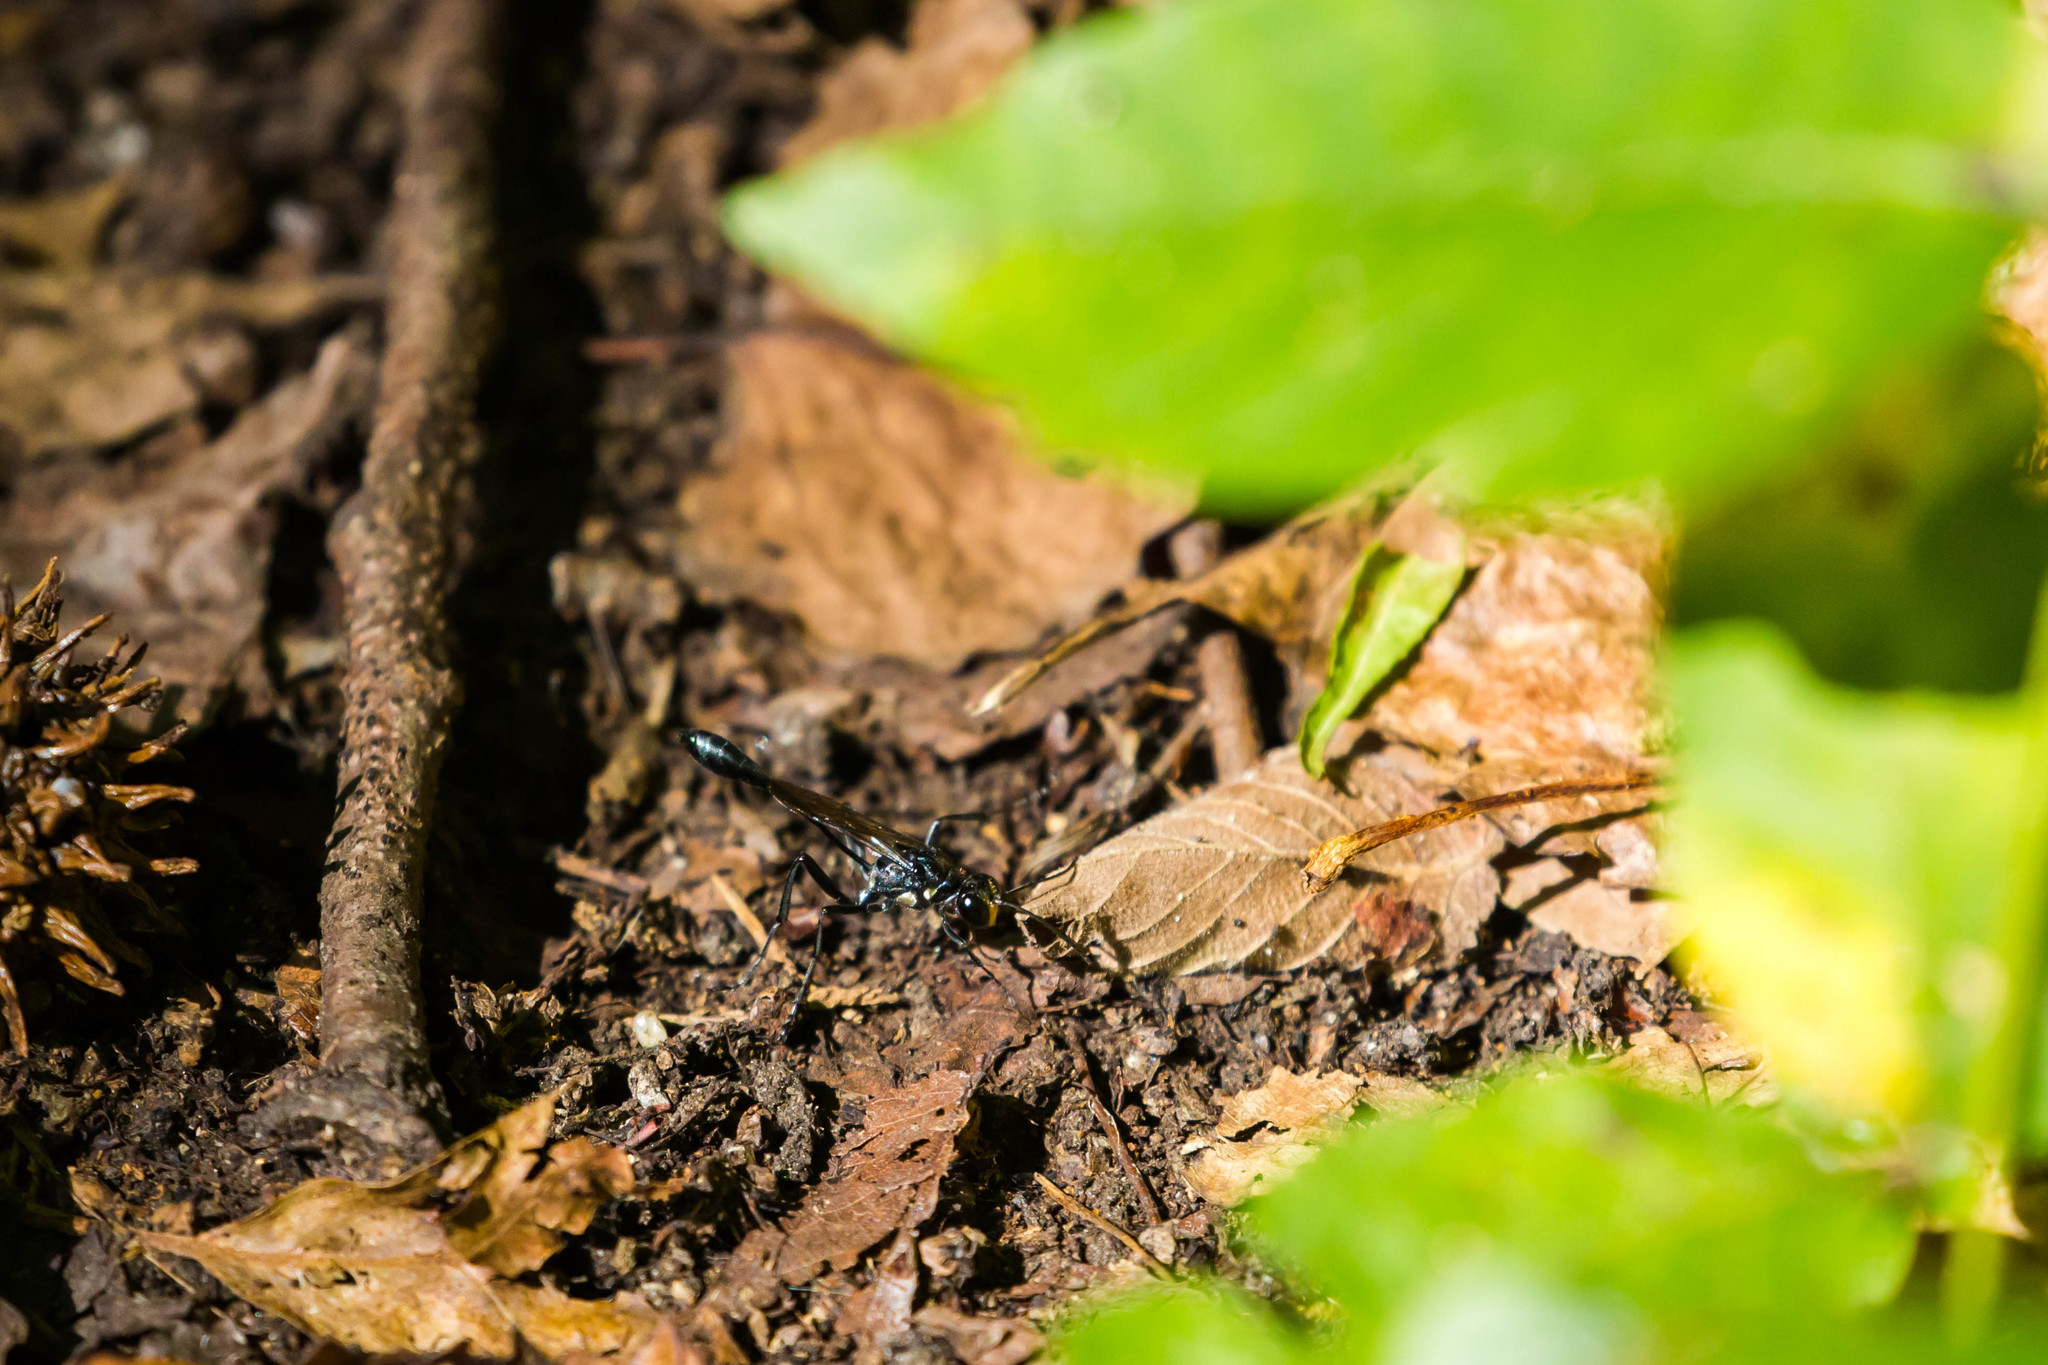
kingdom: Animalia
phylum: Arthropoda
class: Insecta
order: Hymenoptera
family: Sphecidae
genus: Eremnophila
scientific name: Eremnophila aureonotata
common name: Gold-marked thread-waisted wasp
